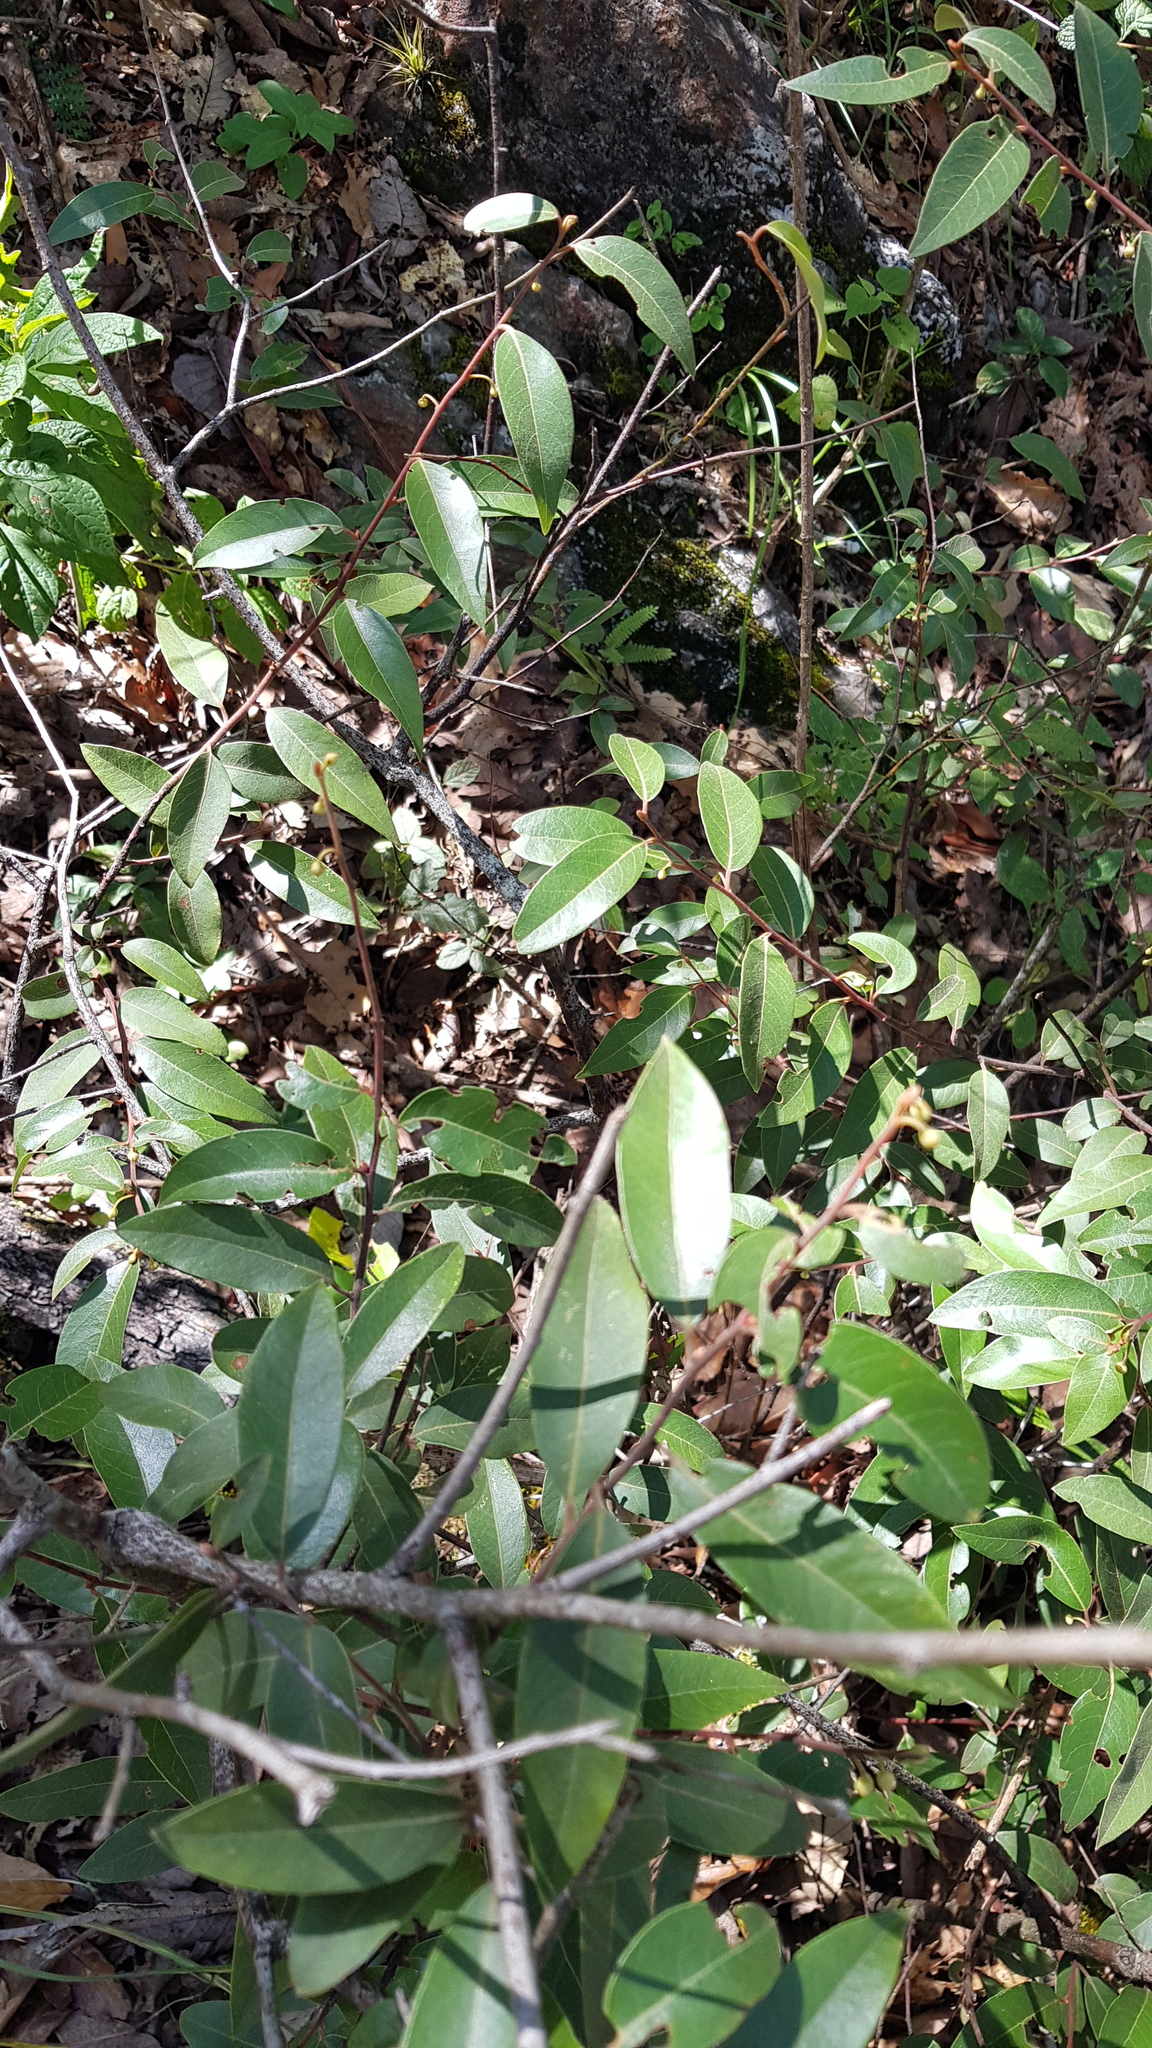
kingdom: Plantae
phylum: Tracheophyta
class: Magnoliopsida
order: Laurales
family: Lauraceae
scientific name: Lauraceae
